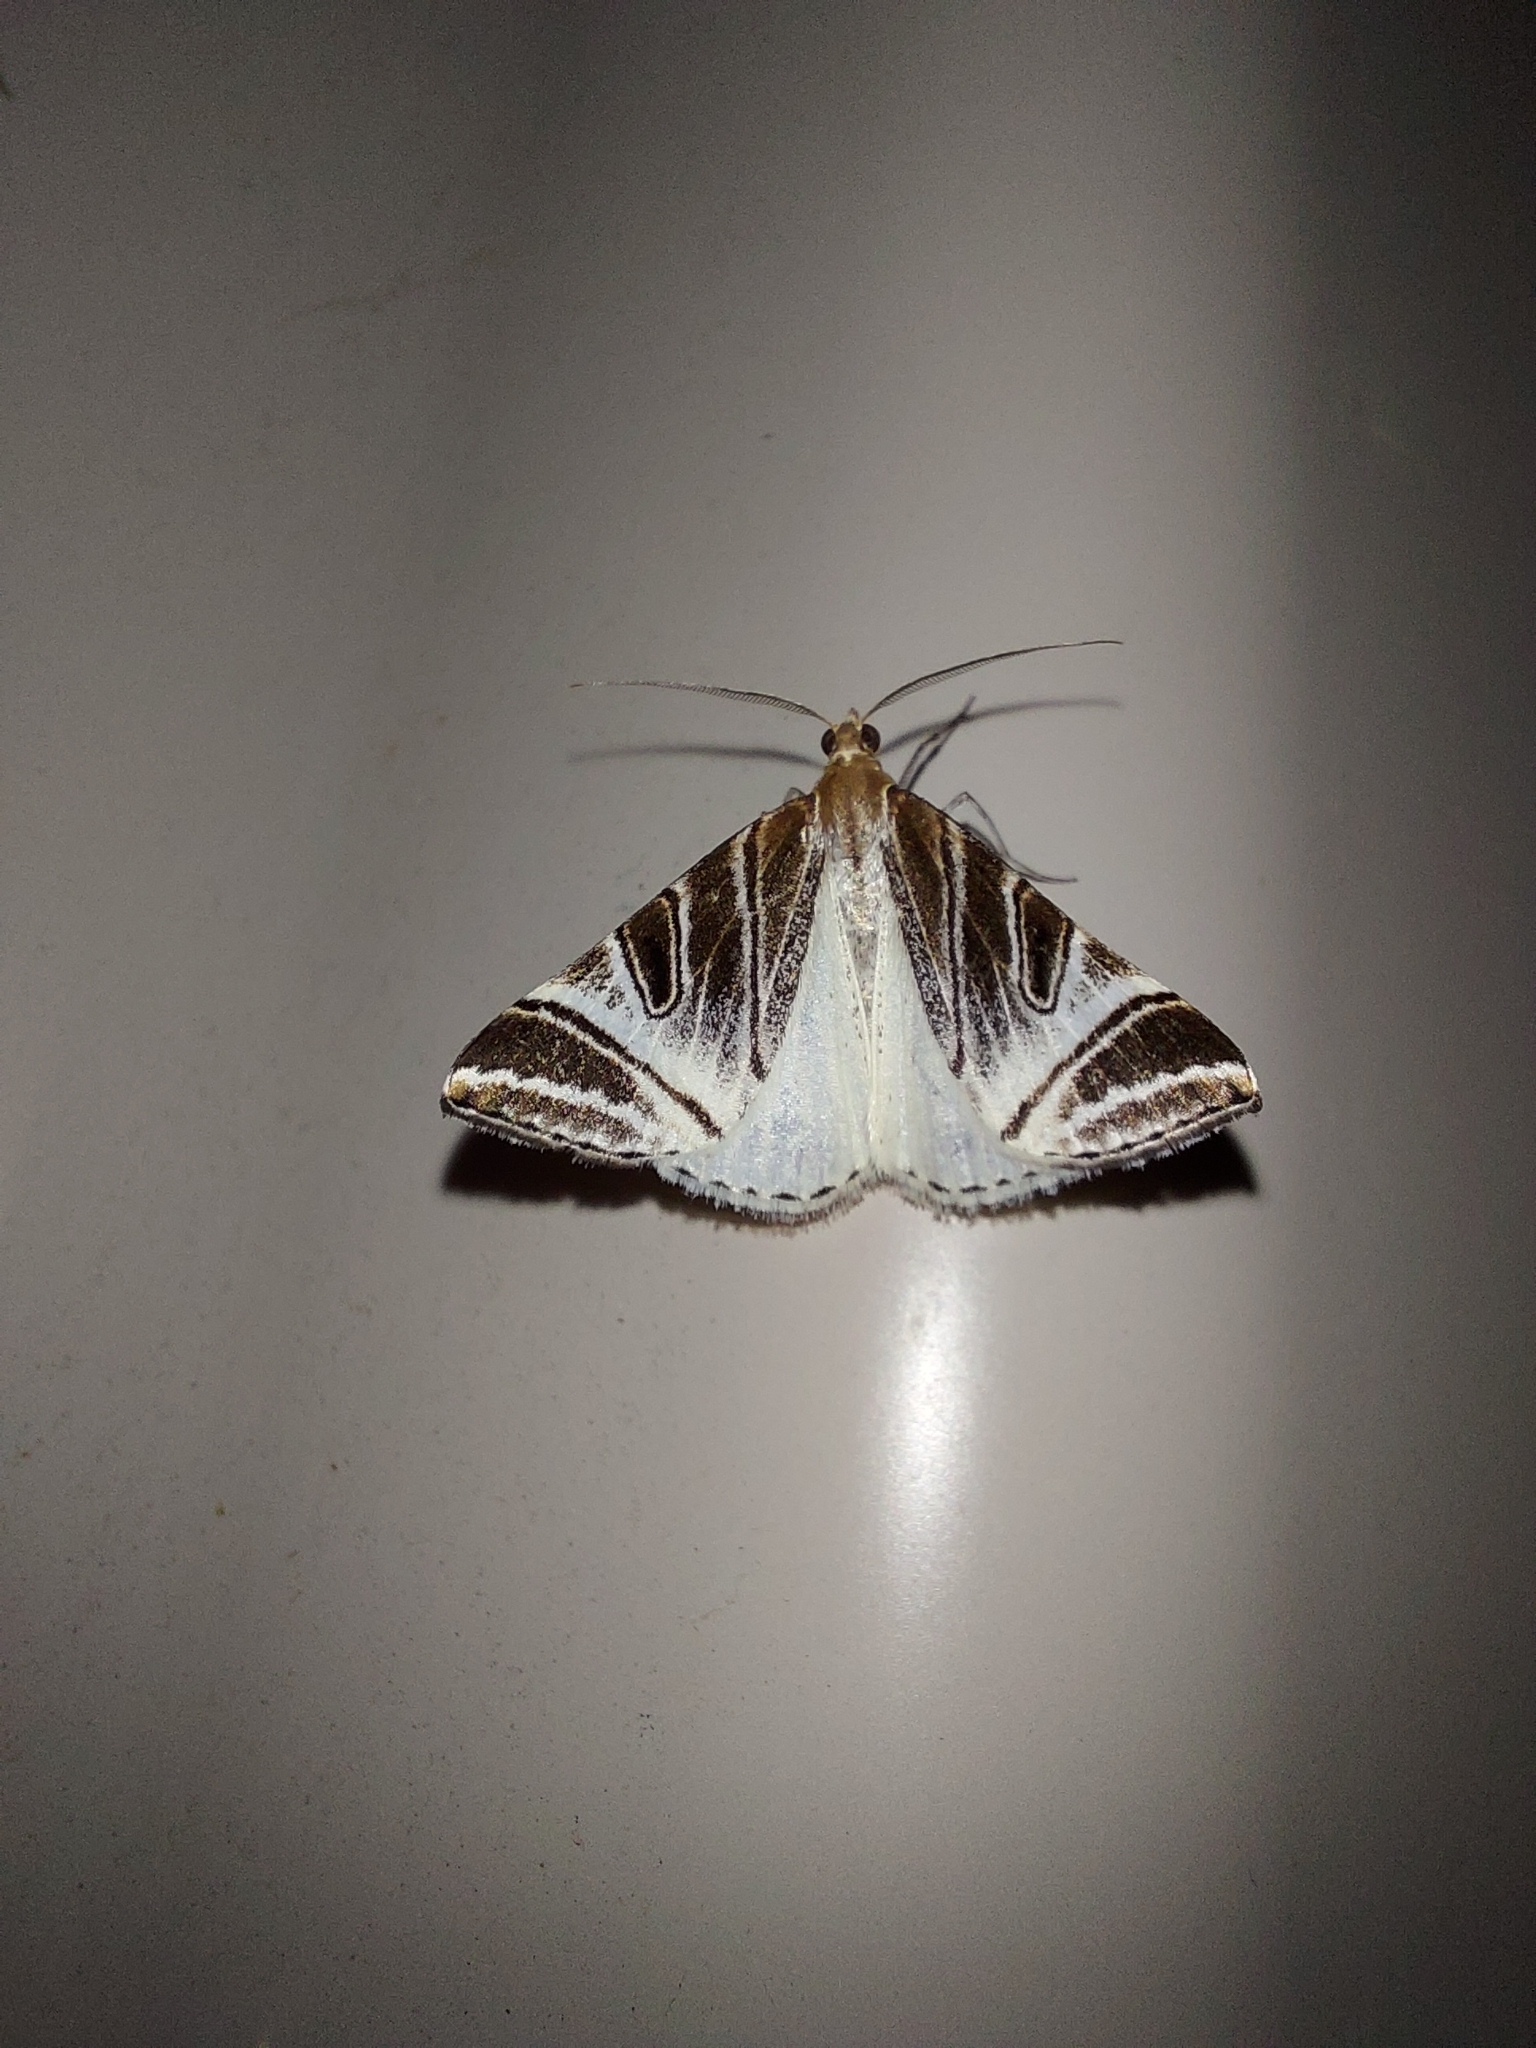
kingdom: Animalia
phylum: Arthropoda
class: Insecta
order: Lepidoptera
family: Geometridae
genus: Phrataria
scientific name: Phrataria replicataria
